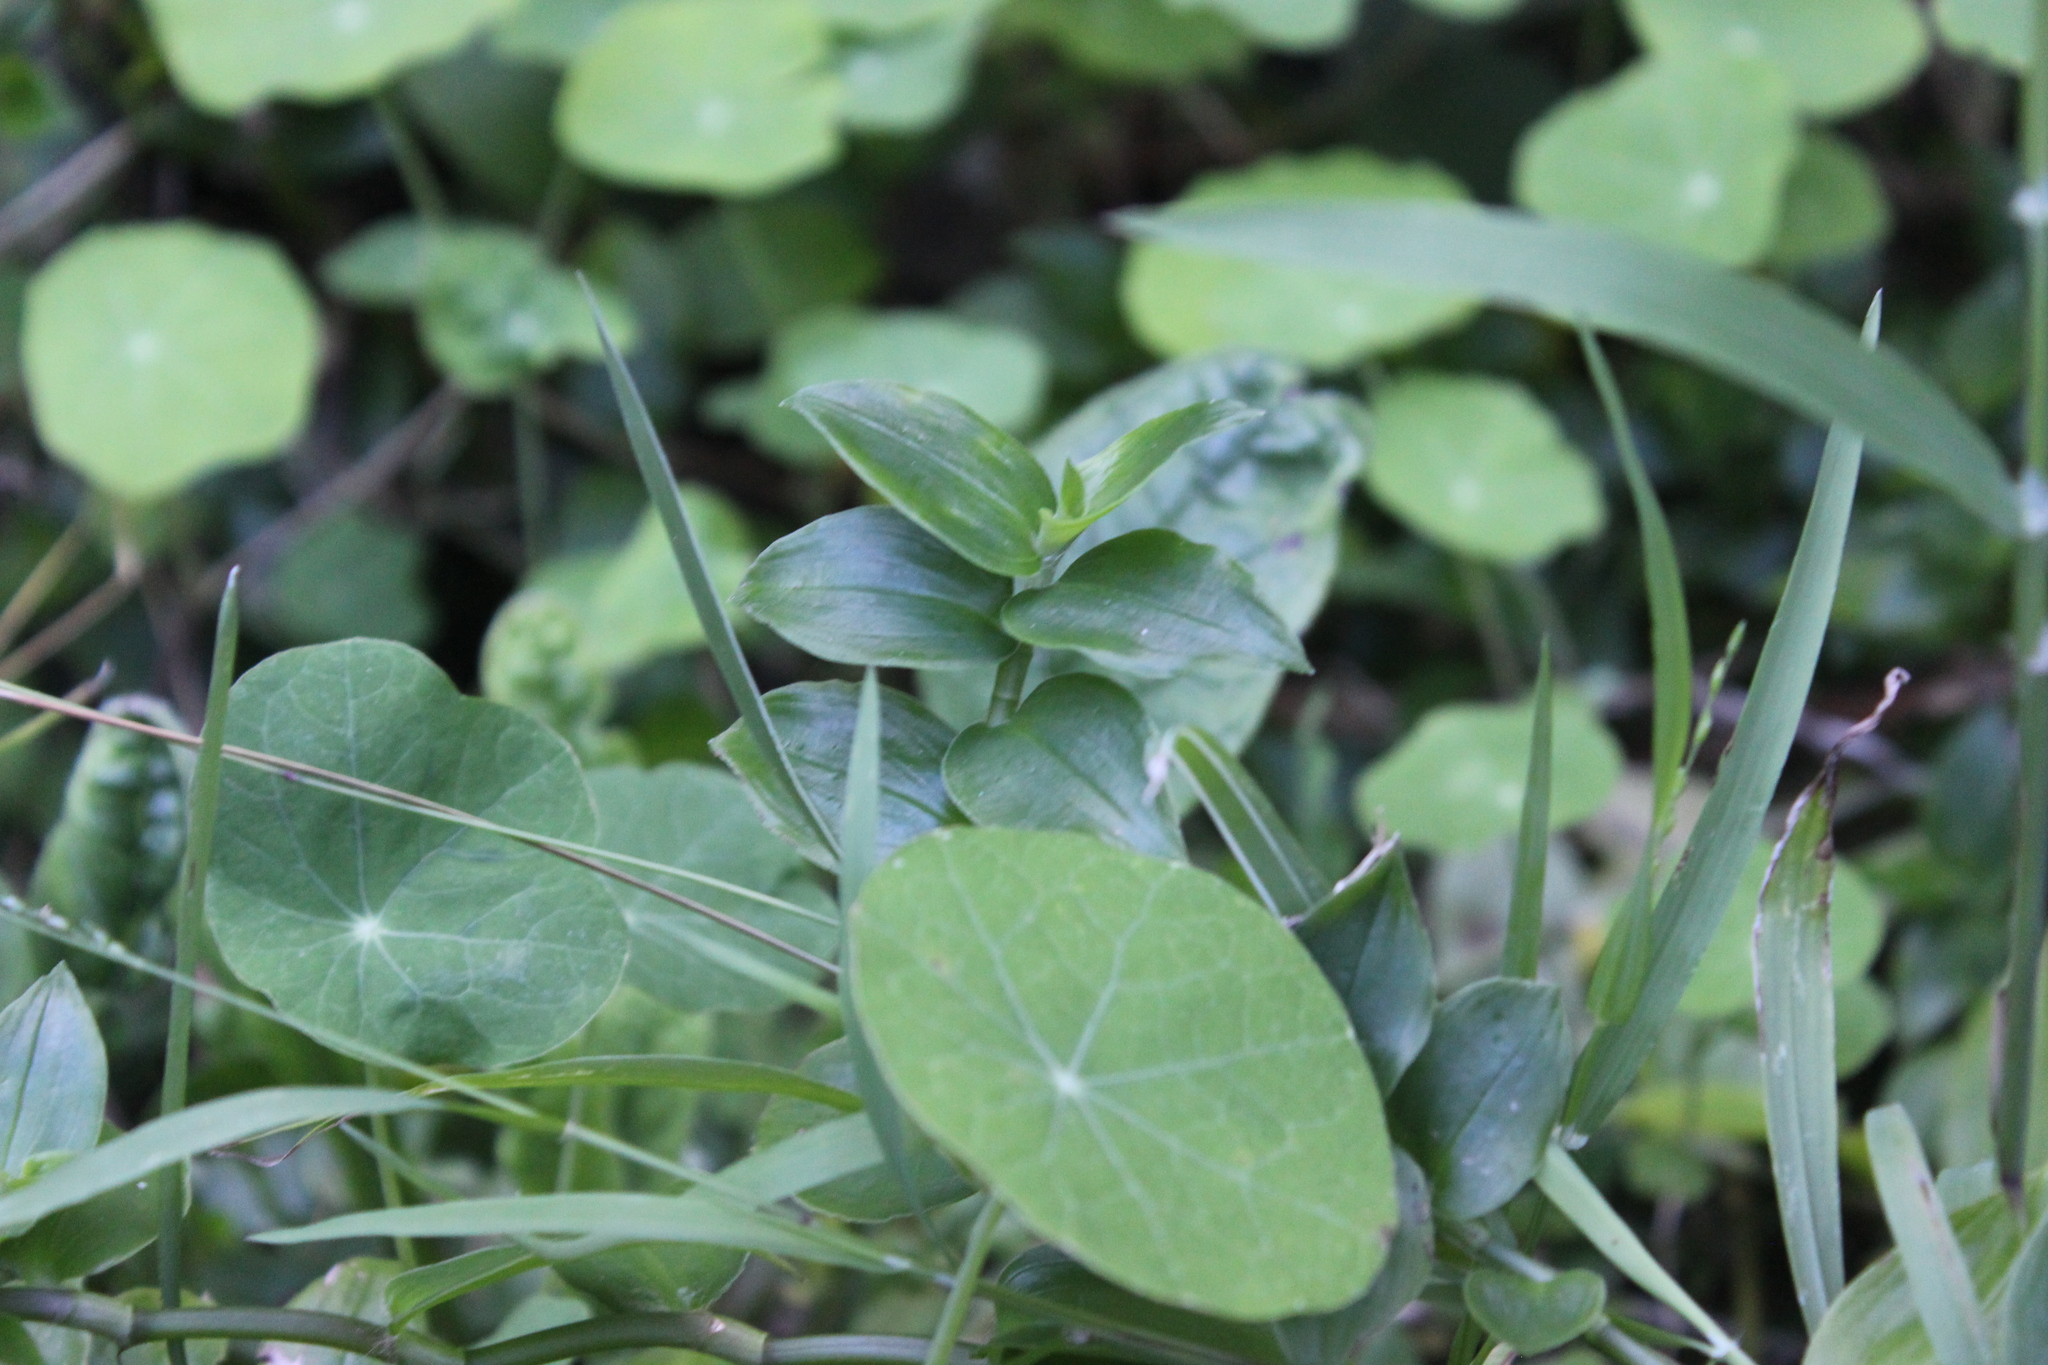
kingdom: Plantae
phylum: Tracheophyta
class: Liliopsida
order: Commelinales
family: Commelinaceae
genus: Tradescantia
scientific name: Tradescantia fluminensis
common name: Wandering-jew
